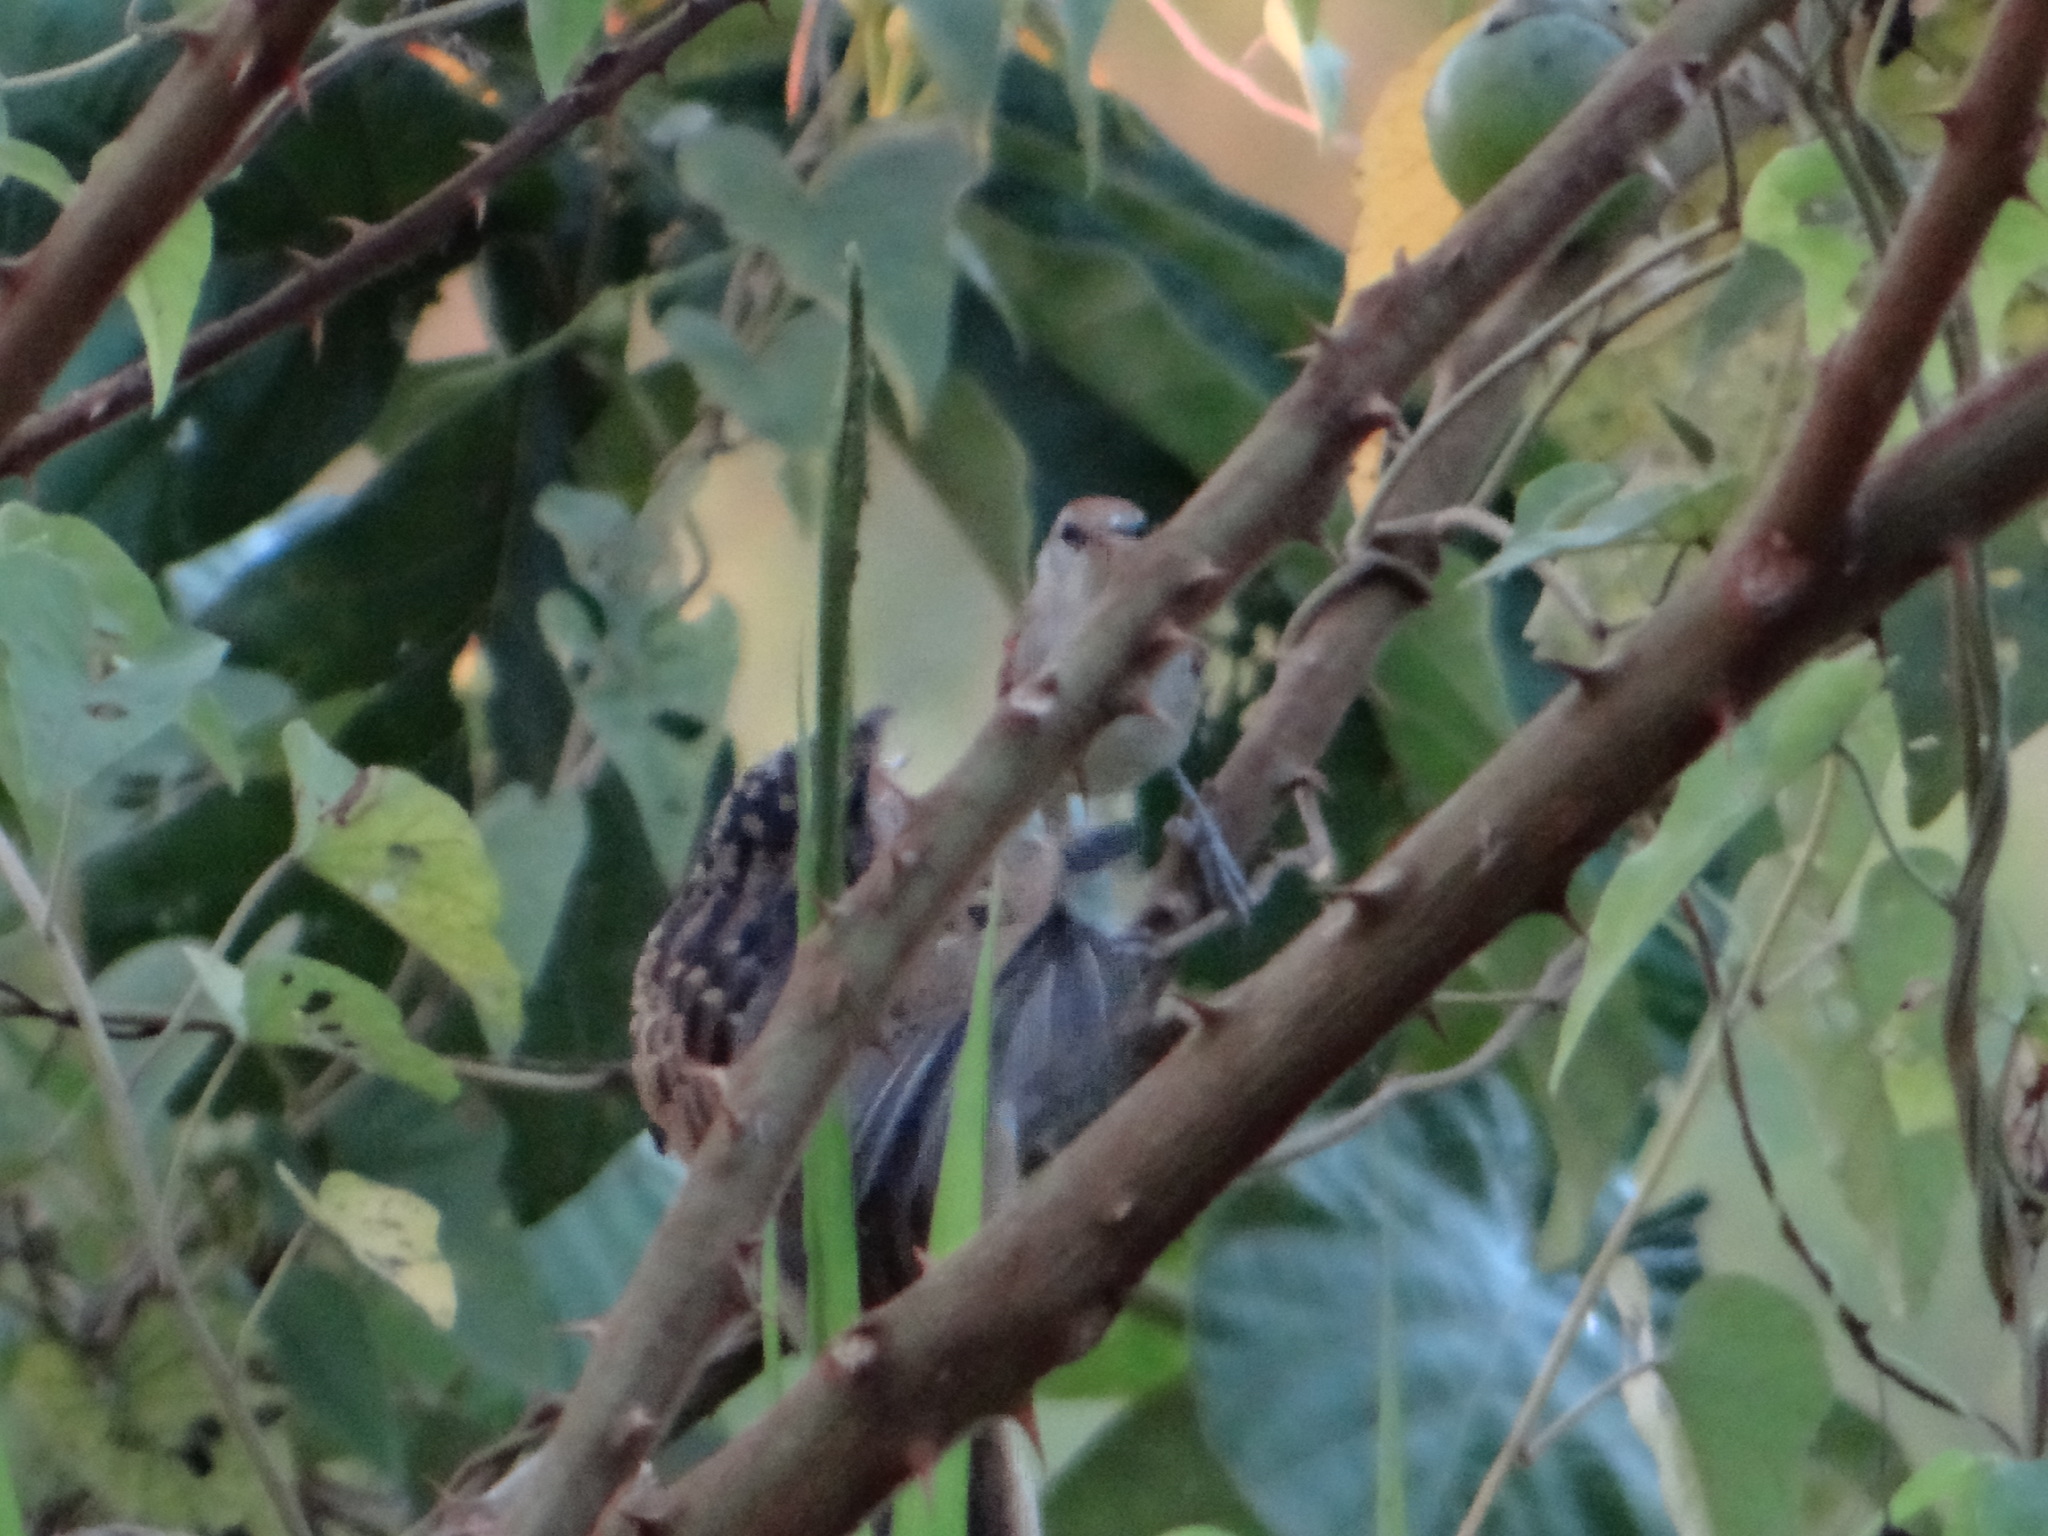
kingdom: Animalia
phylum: Chordata
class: Aves
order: Cuculiformes
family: Cuculidae
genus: Tapera
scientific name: Tapera naevia
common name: Striped cuckoo
